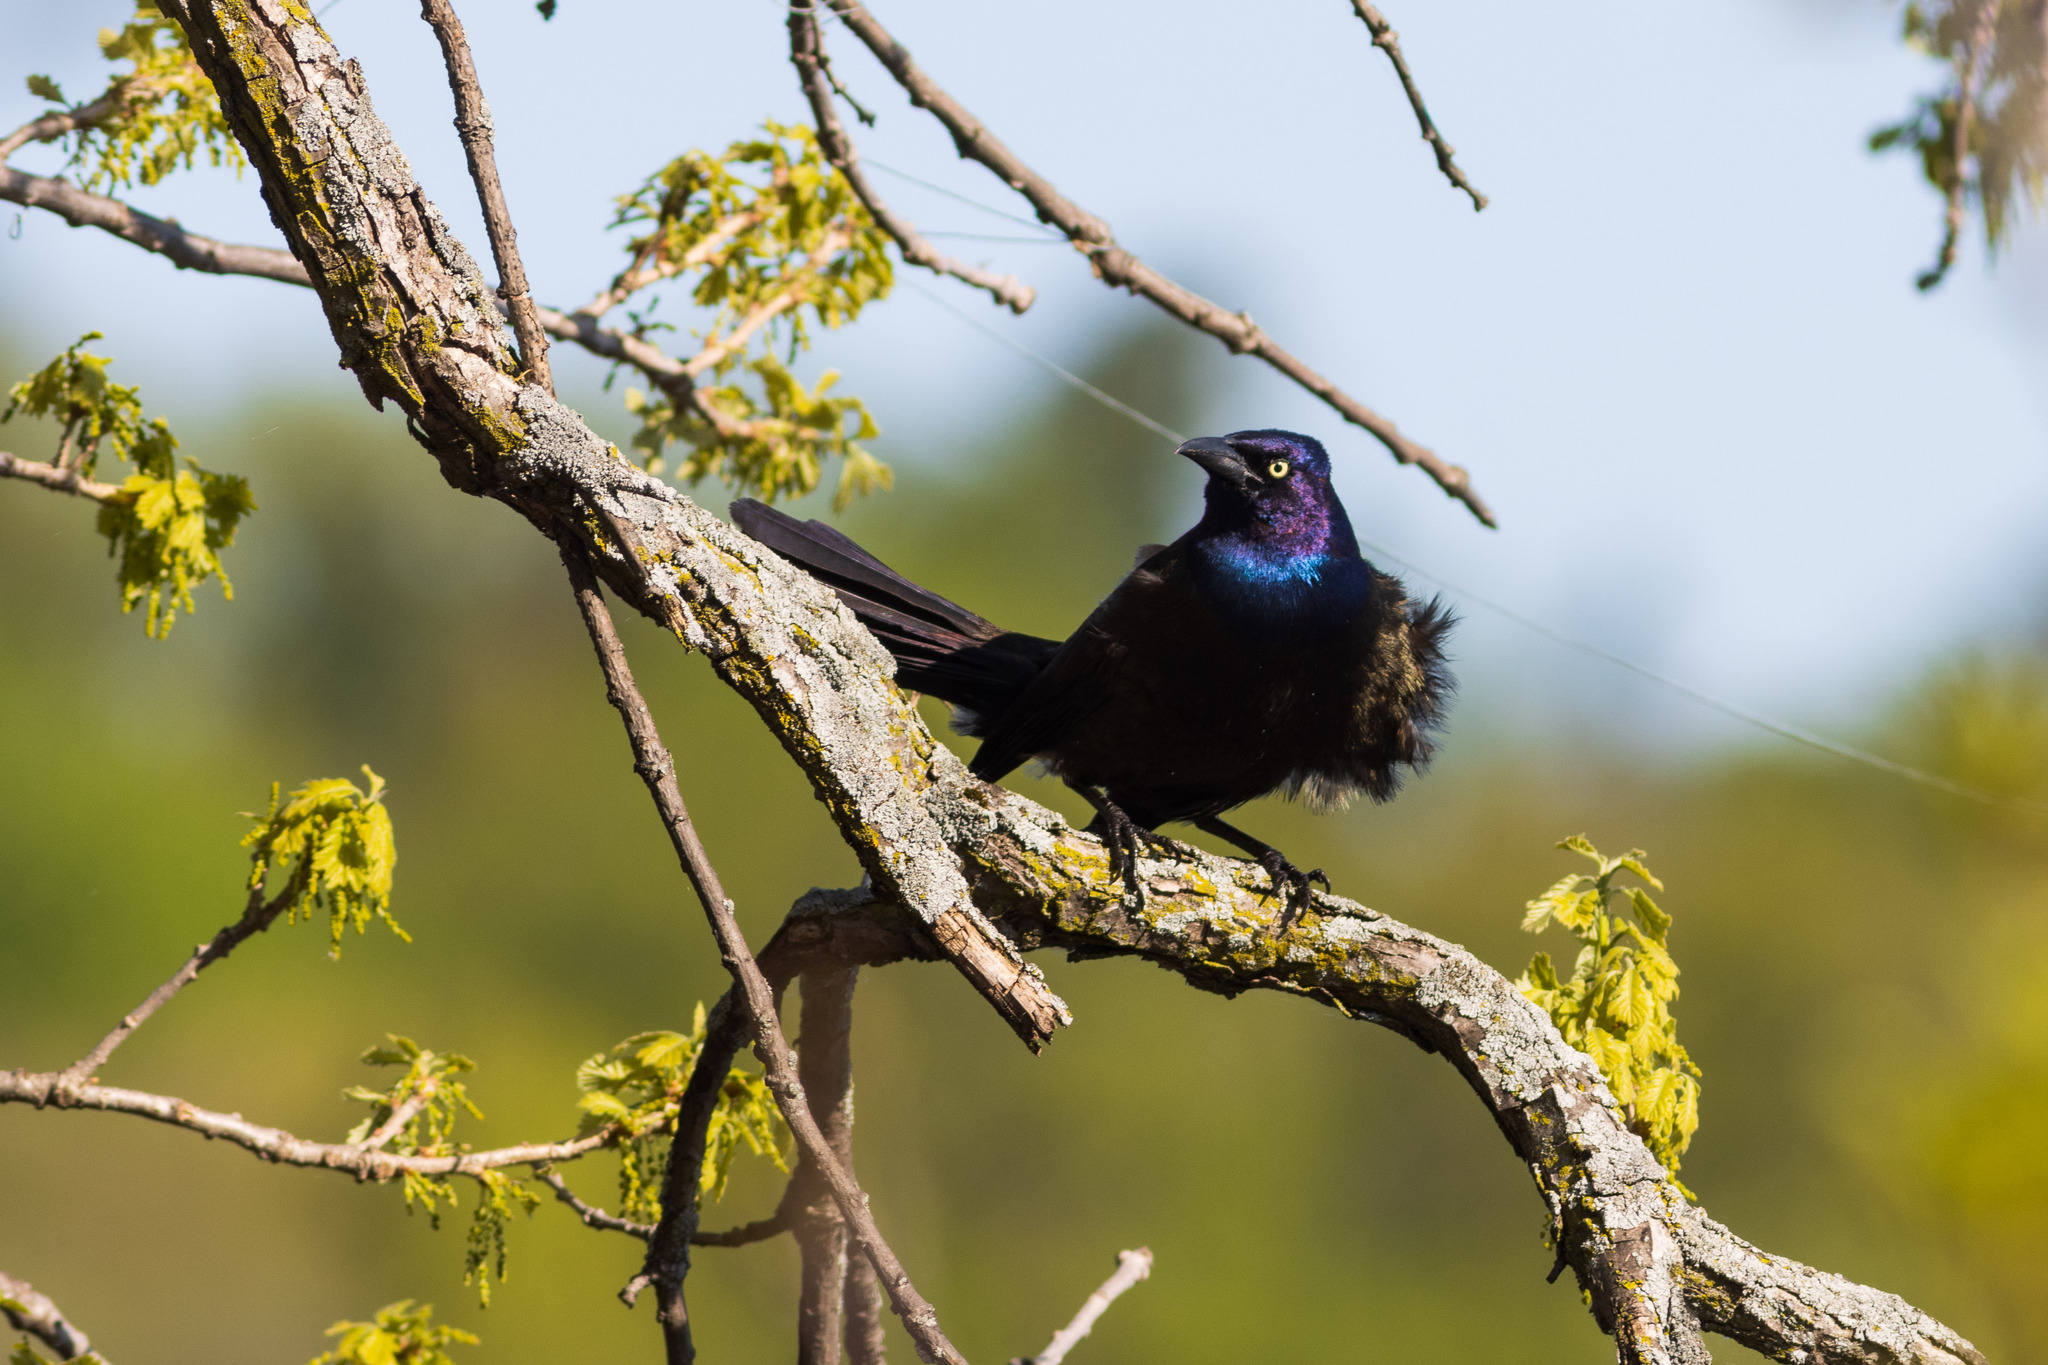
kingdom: Animalia
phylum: Chordata
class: Aves
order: Passeriformes
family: Icteridae
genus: Quiscalus
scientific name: Quiscalus quiscula
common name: Common grackle
